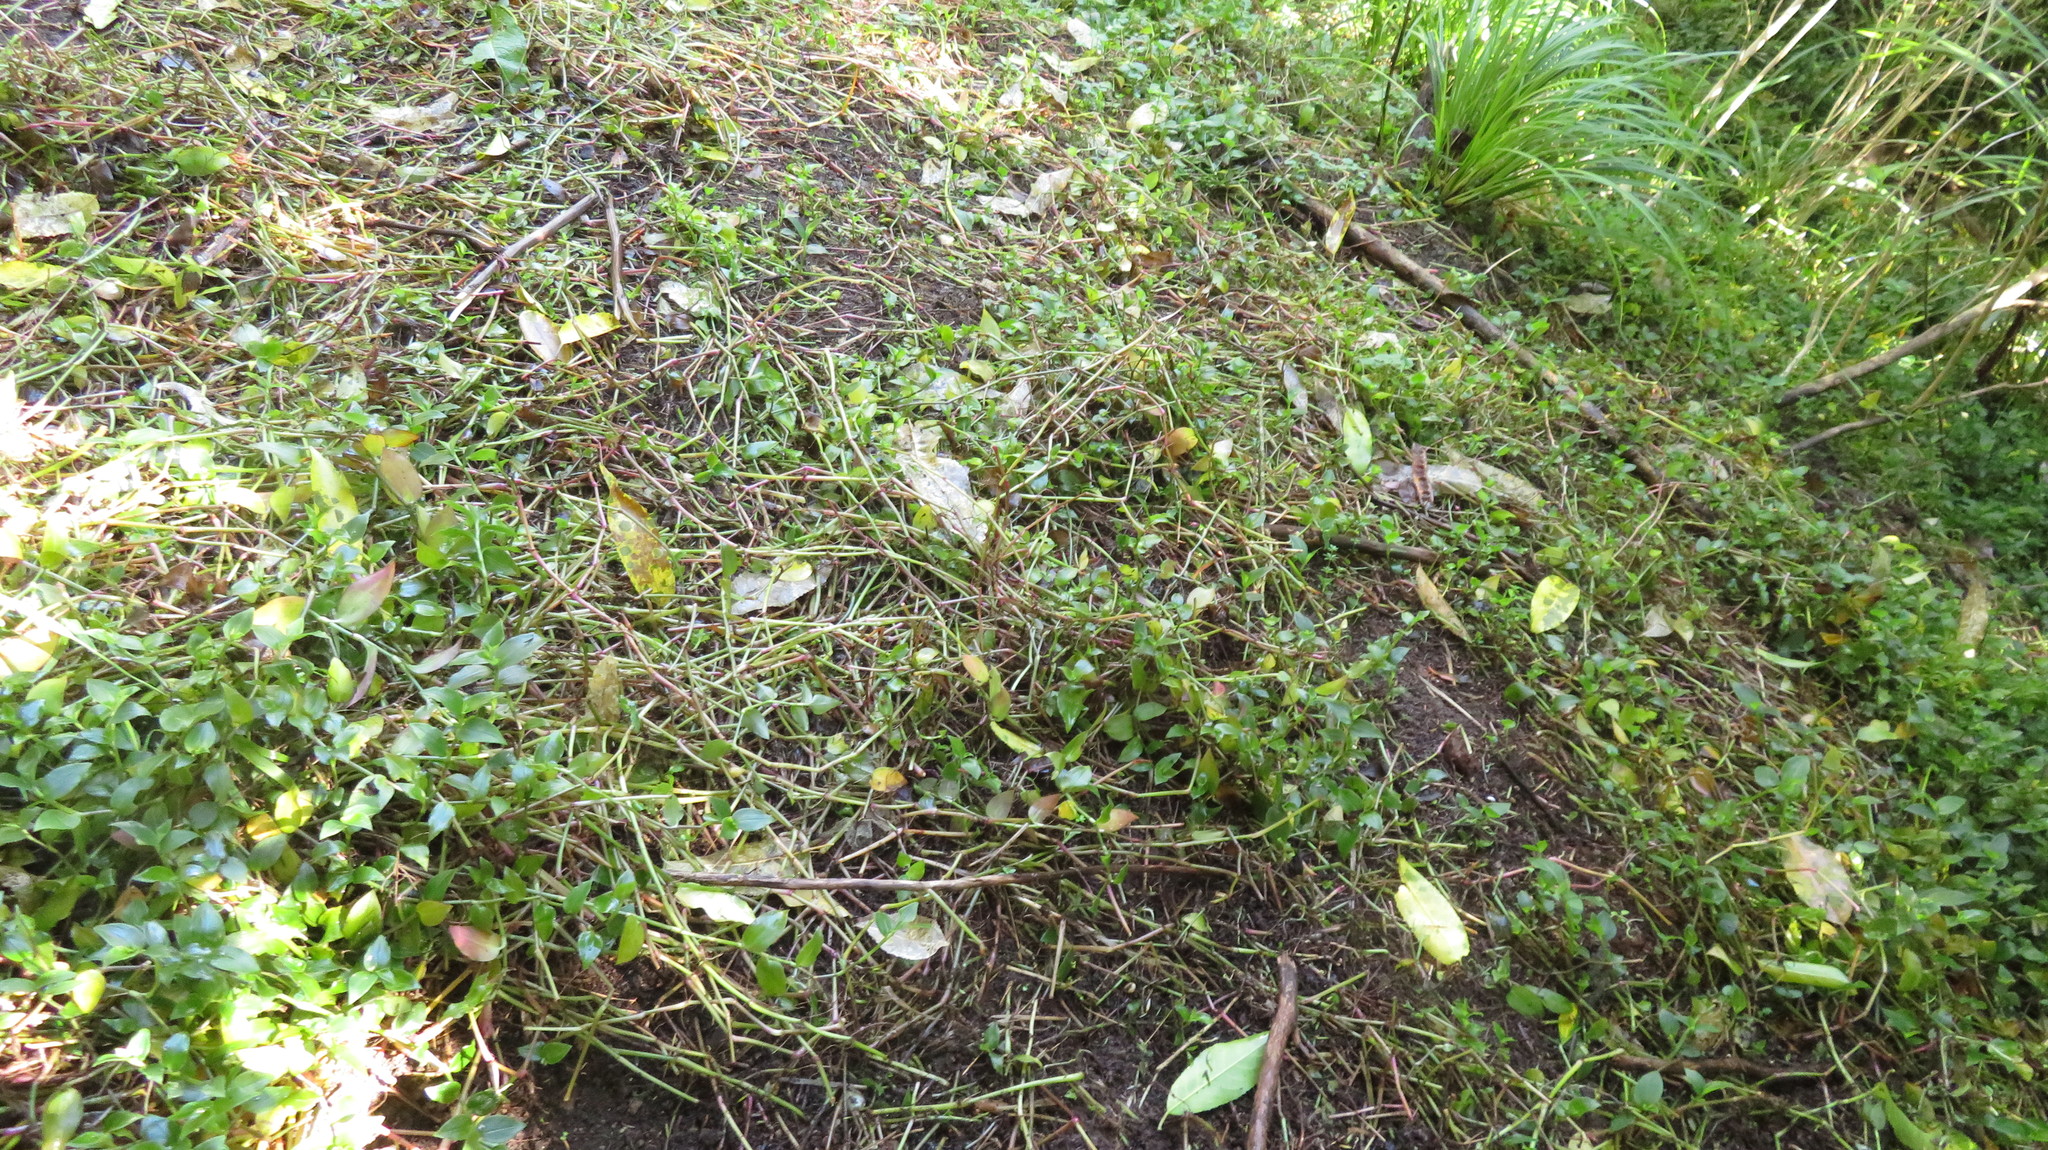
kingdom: Plantae
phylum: Tracheophyta
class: Liliopsida
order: Commelinales
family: Commelinaceae
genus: Tradescantia
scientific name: Tradescantia fluminensis
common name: Wandering-jew
